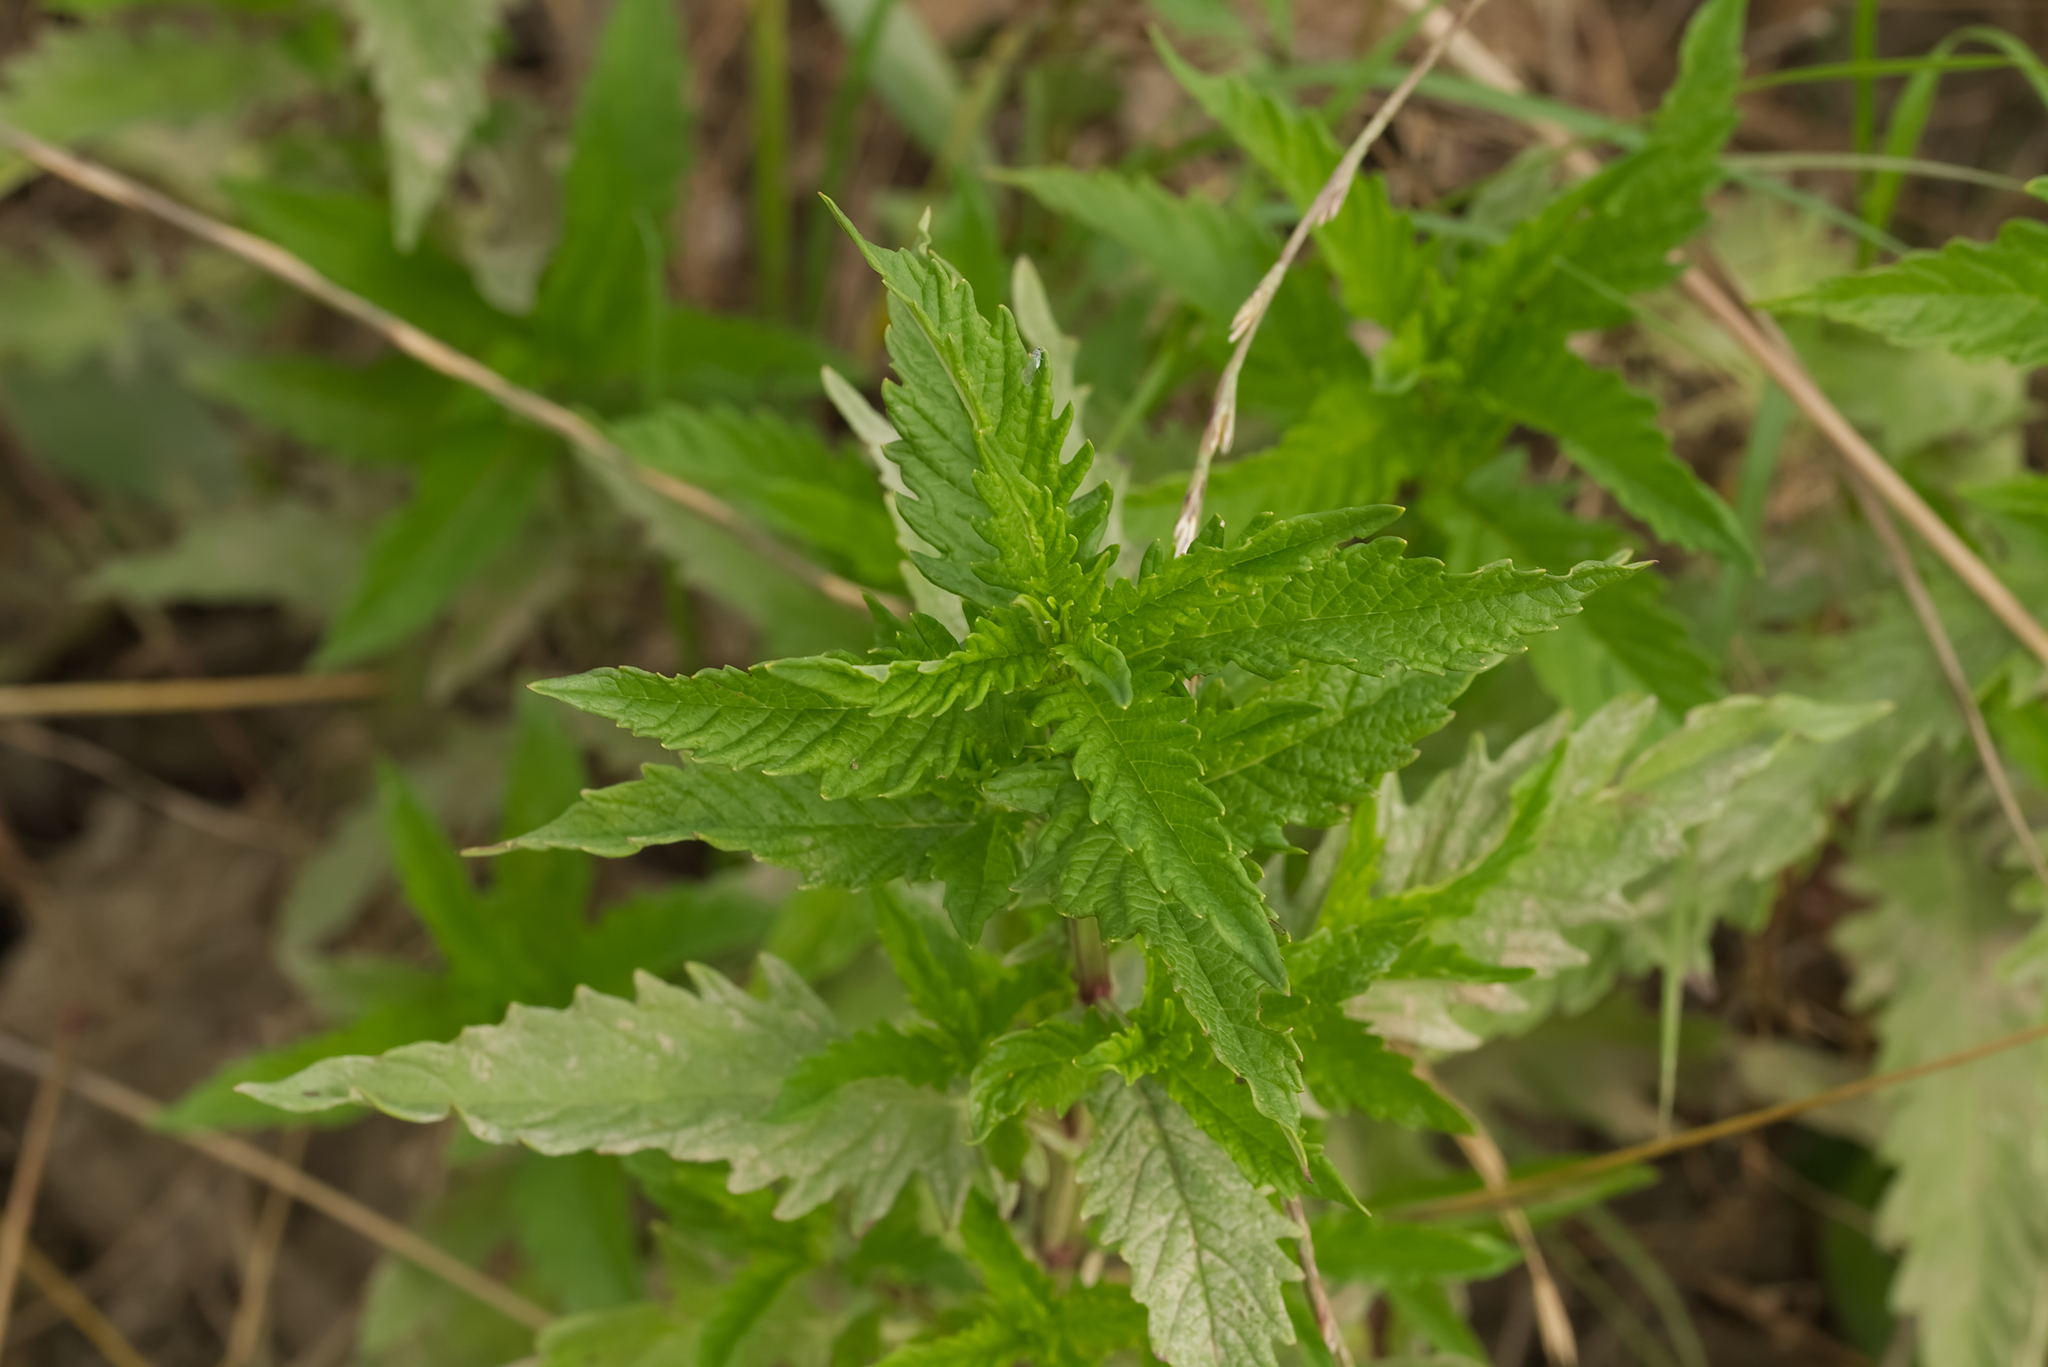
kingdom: Plantae
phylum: Tracheophyta
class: Magnoliopsida
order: Lamiales
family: Lamiaceae
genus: Lycopus
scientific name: Lycopus europaeus
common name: European bugleweed
